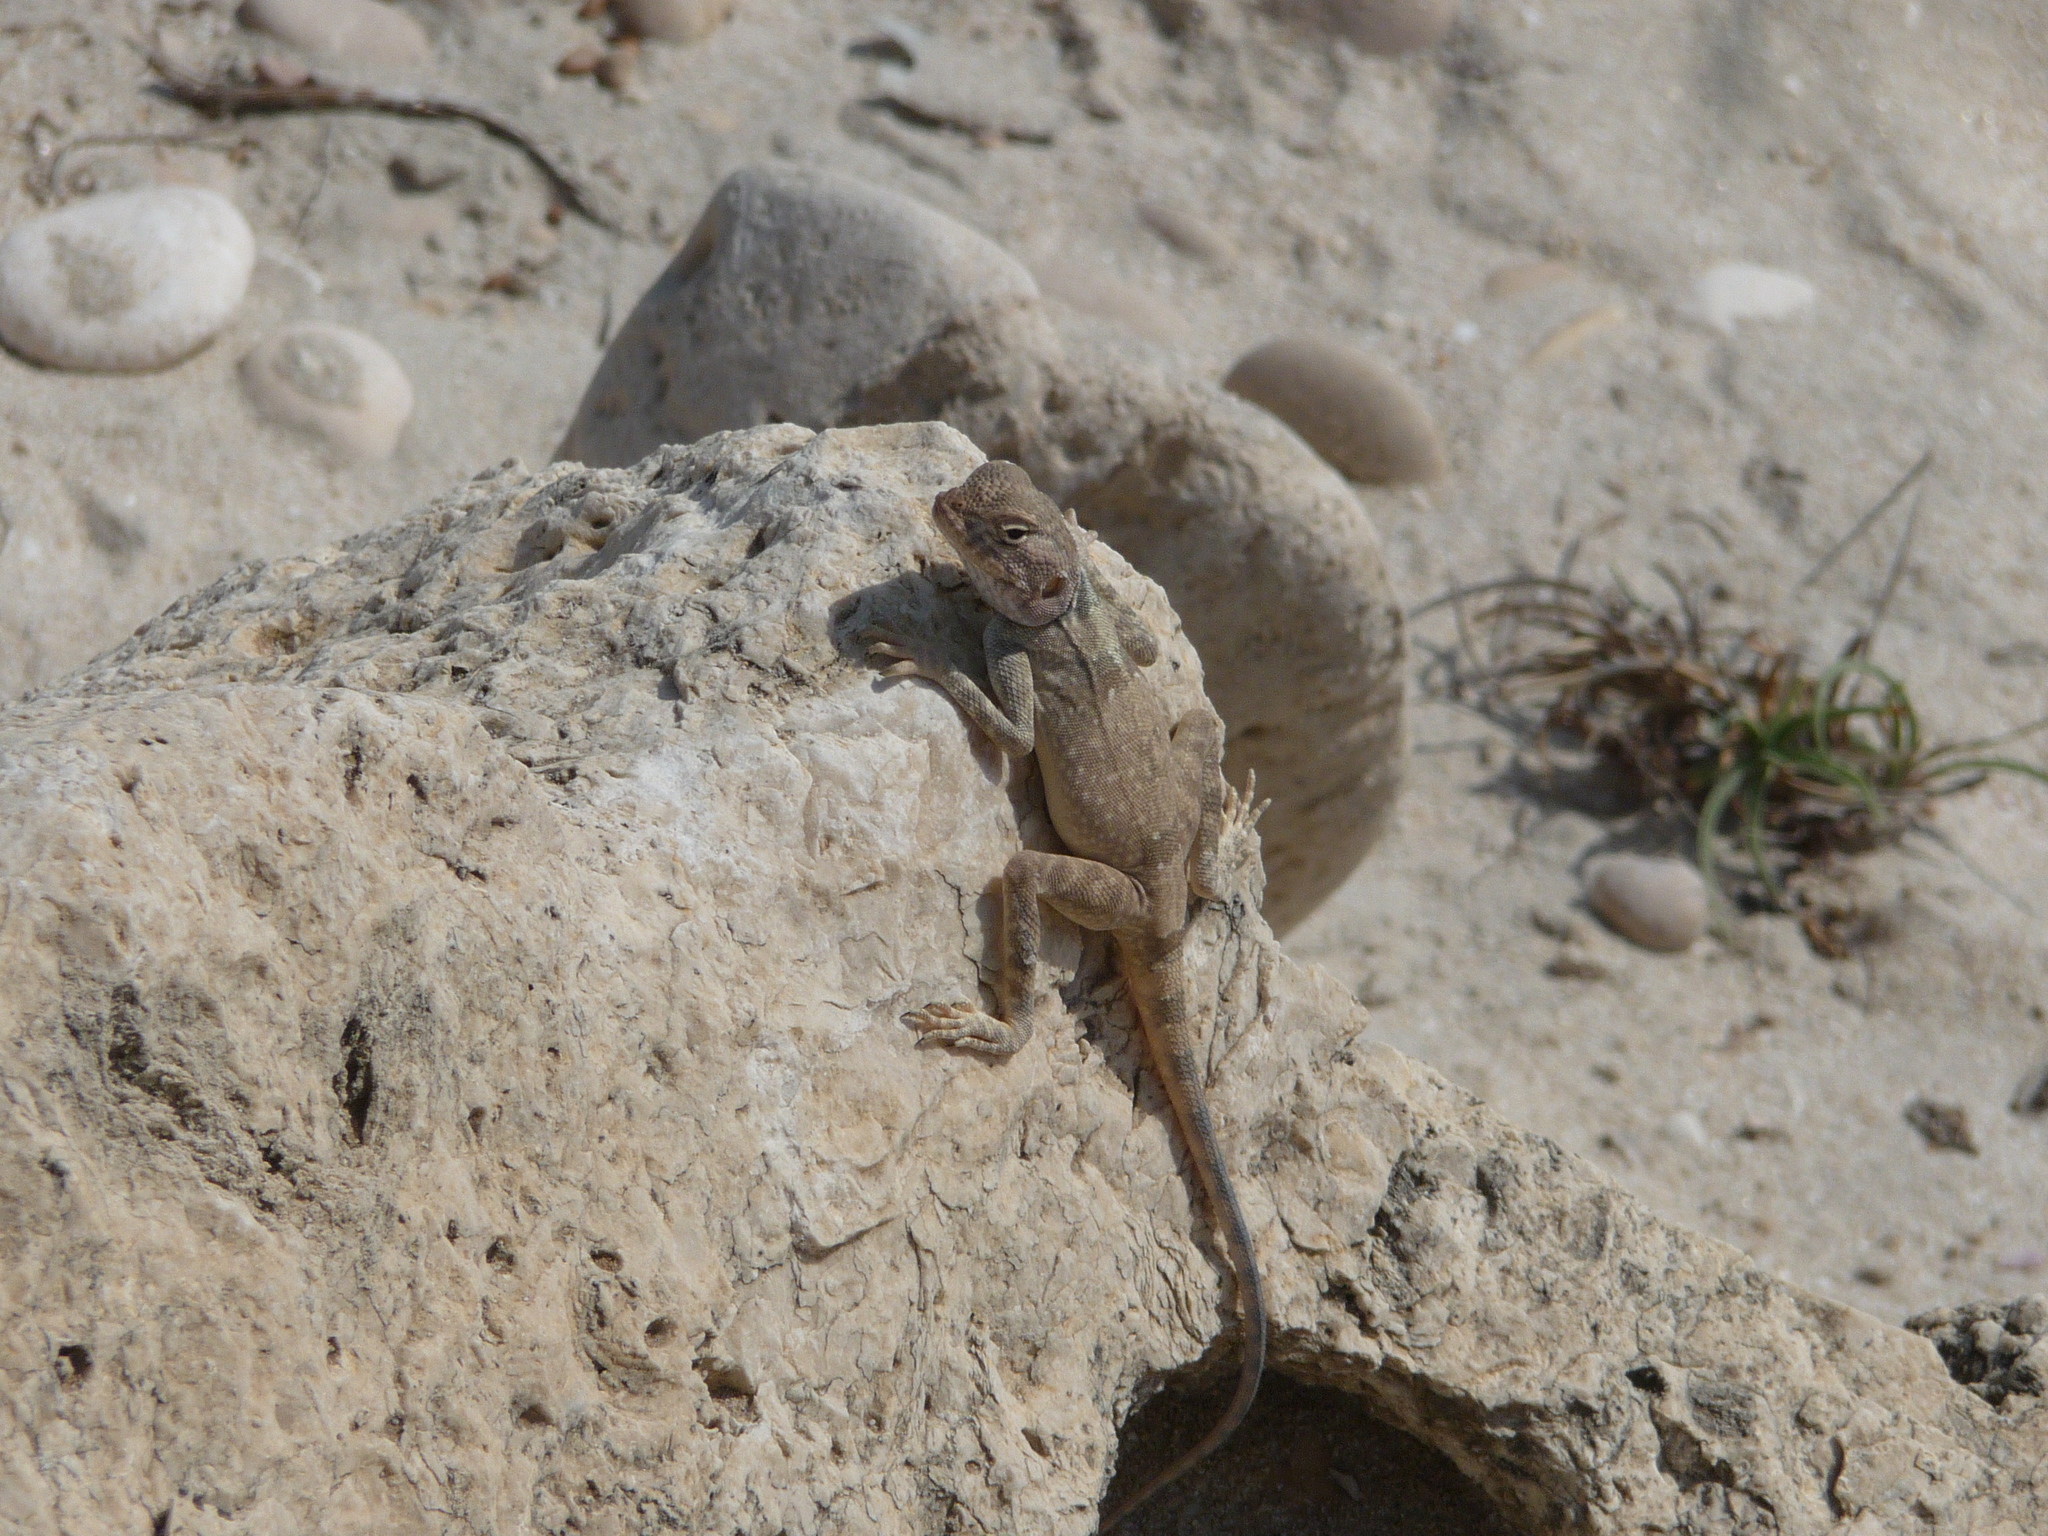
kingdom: Animalia
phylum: Chordata
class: Squamata
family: Agamidae
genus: Pseudotrapelus
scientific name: Pseudotrapelus dhofarensis
